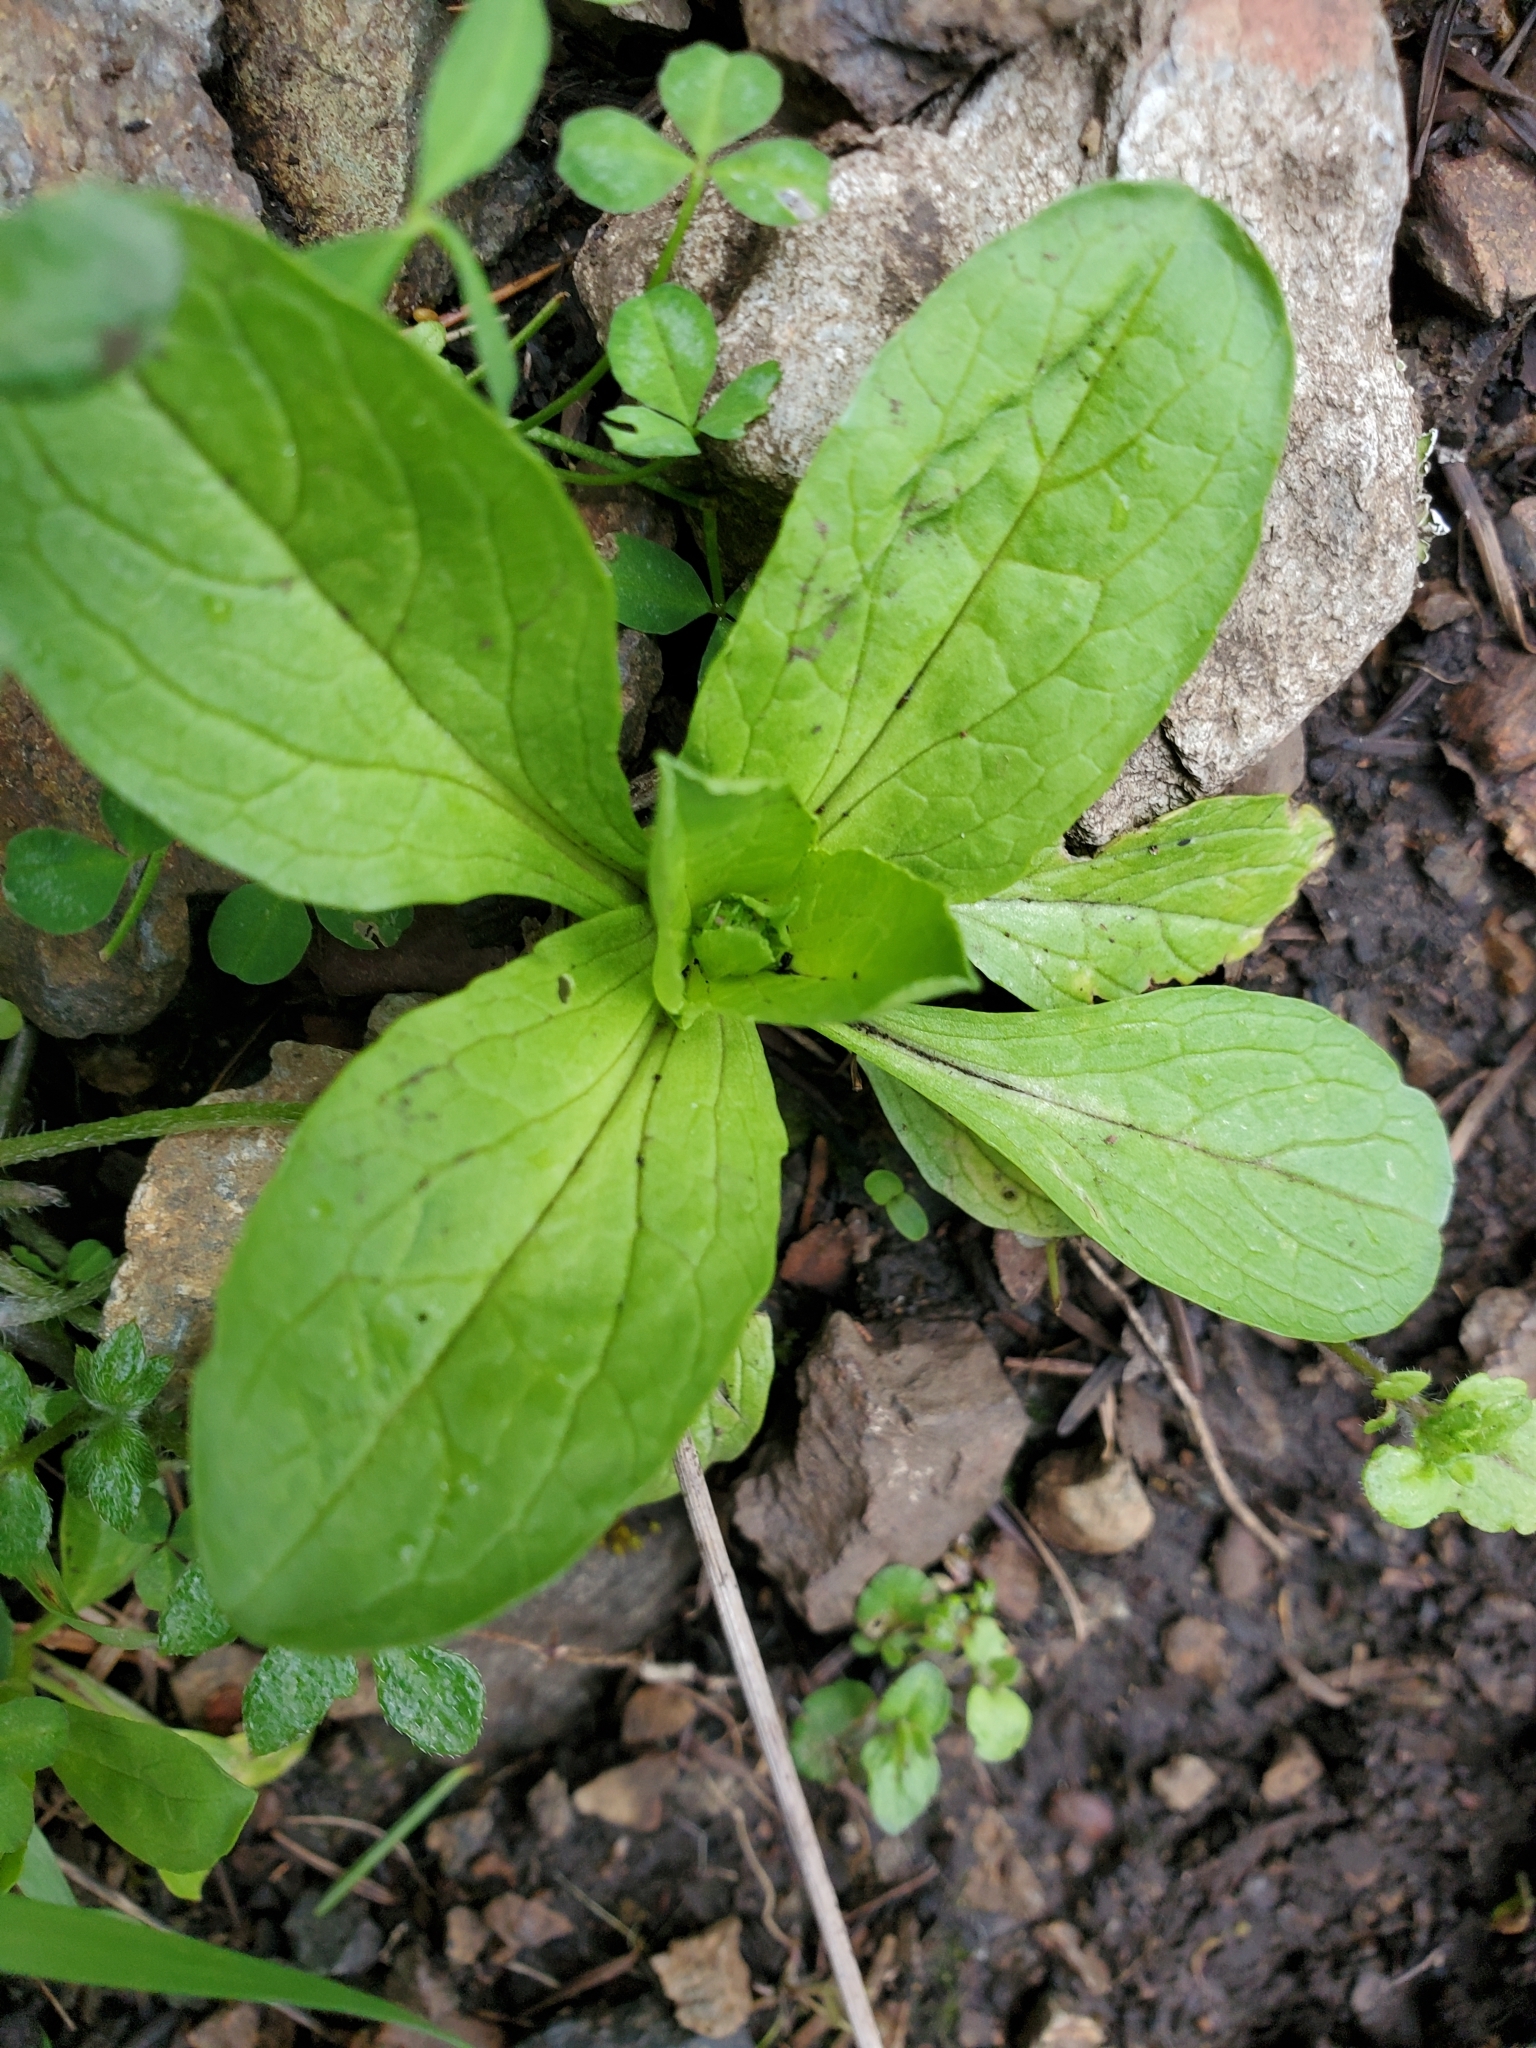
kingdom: Plantae
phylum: Tracheophyta
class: Magnoliopsida
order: Dipsacales
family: Caprifoliaceae
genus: Plectritis
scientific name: Plectritis congesta
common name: Pink plectritis
